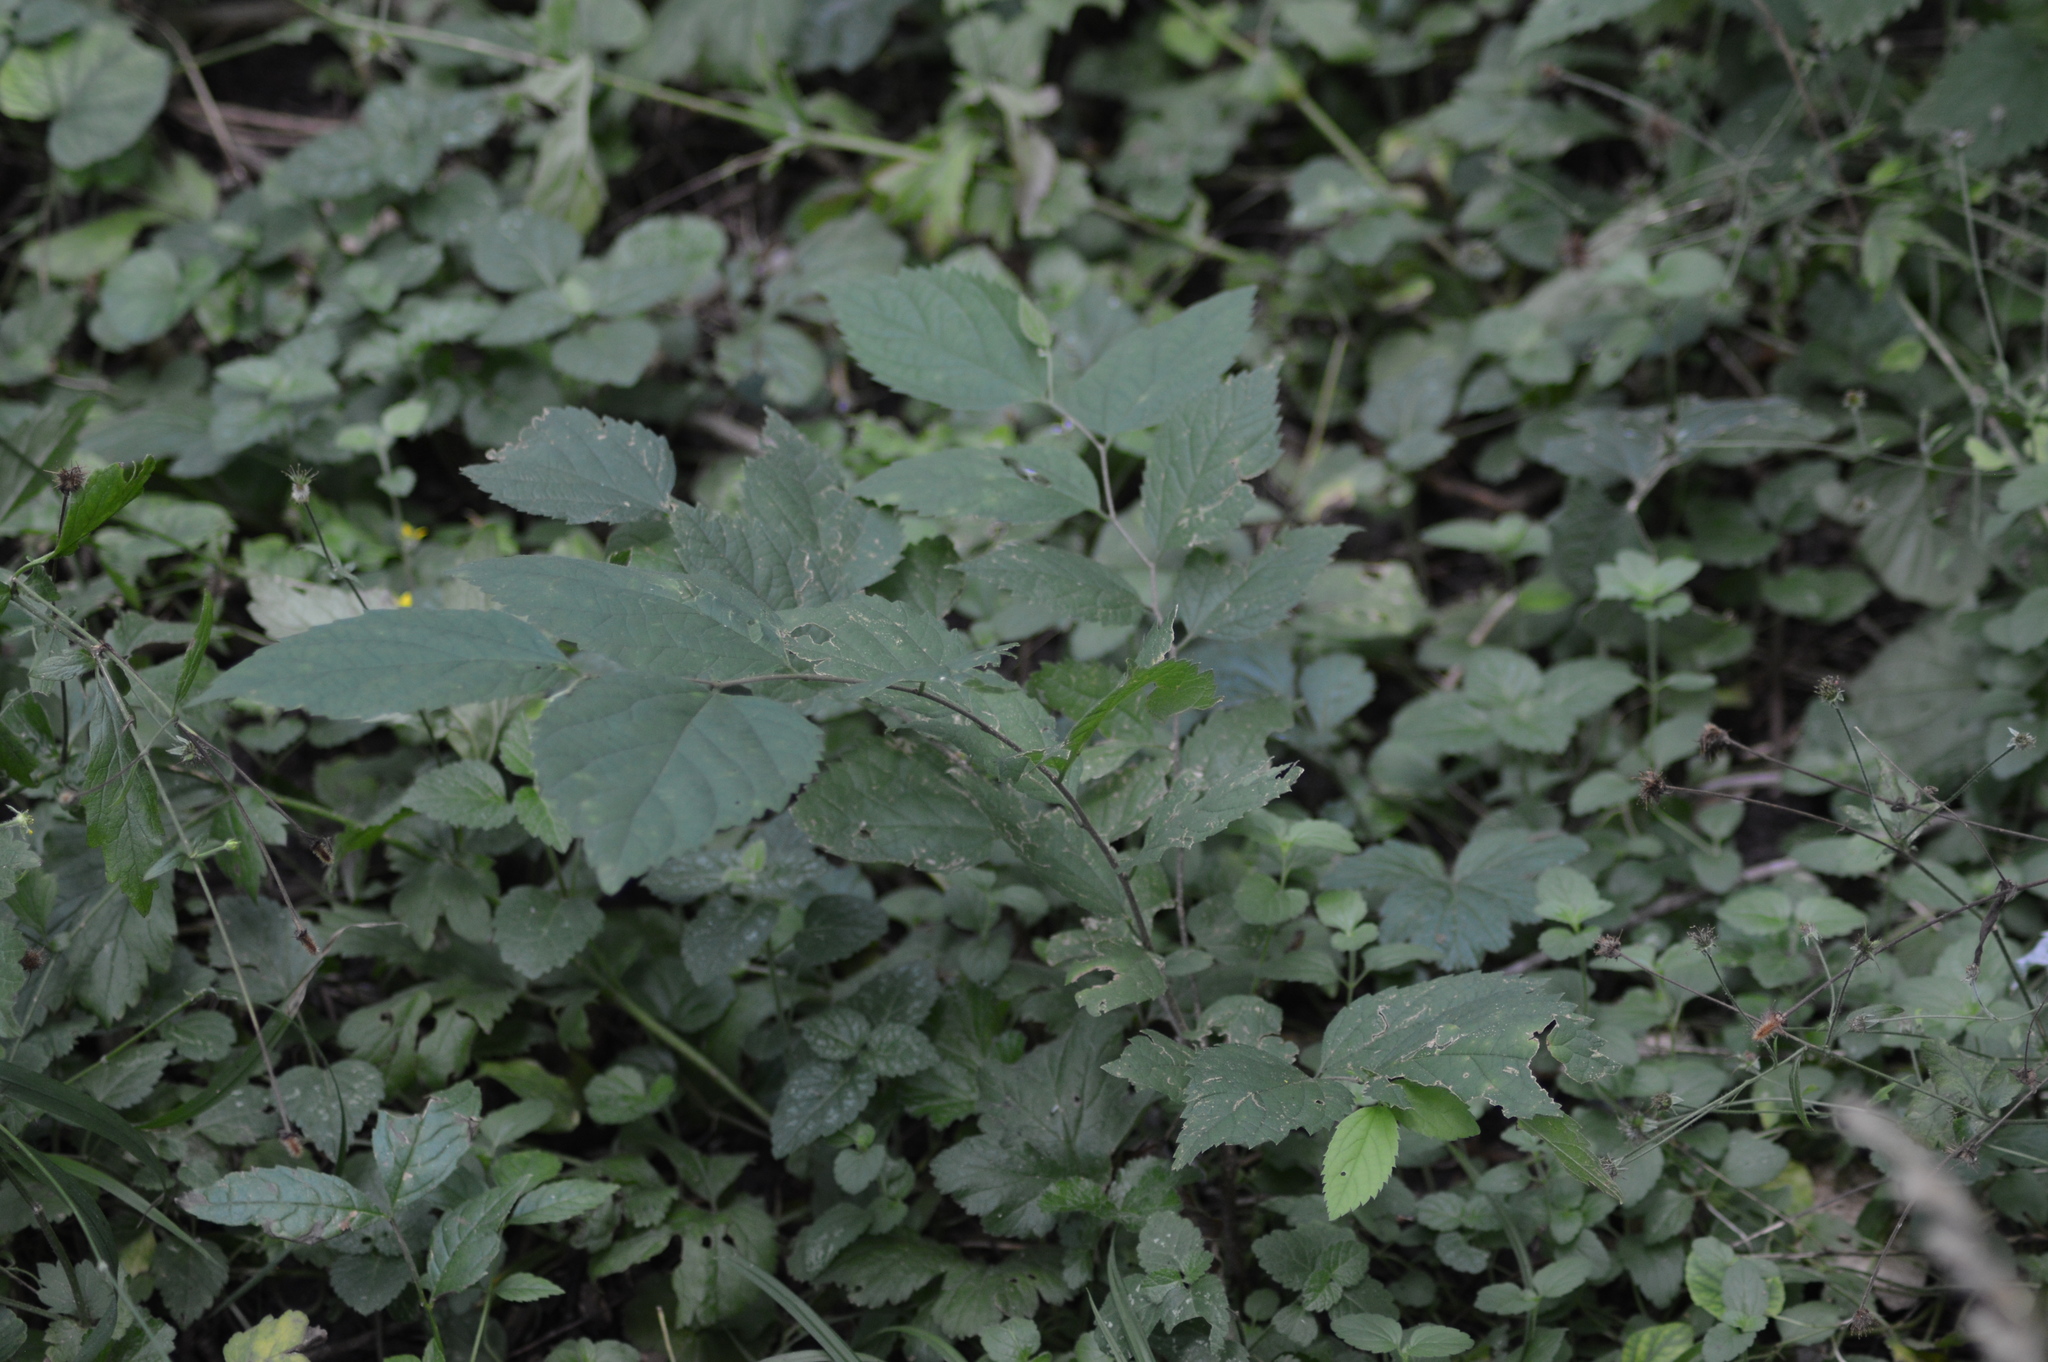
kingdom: Plantae
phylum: Tracheophyta
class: Magnoliopsida
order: Rosales
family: Cannabaceae
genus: Celtis
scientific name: Celtis occidentalis
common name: Common hackberry
